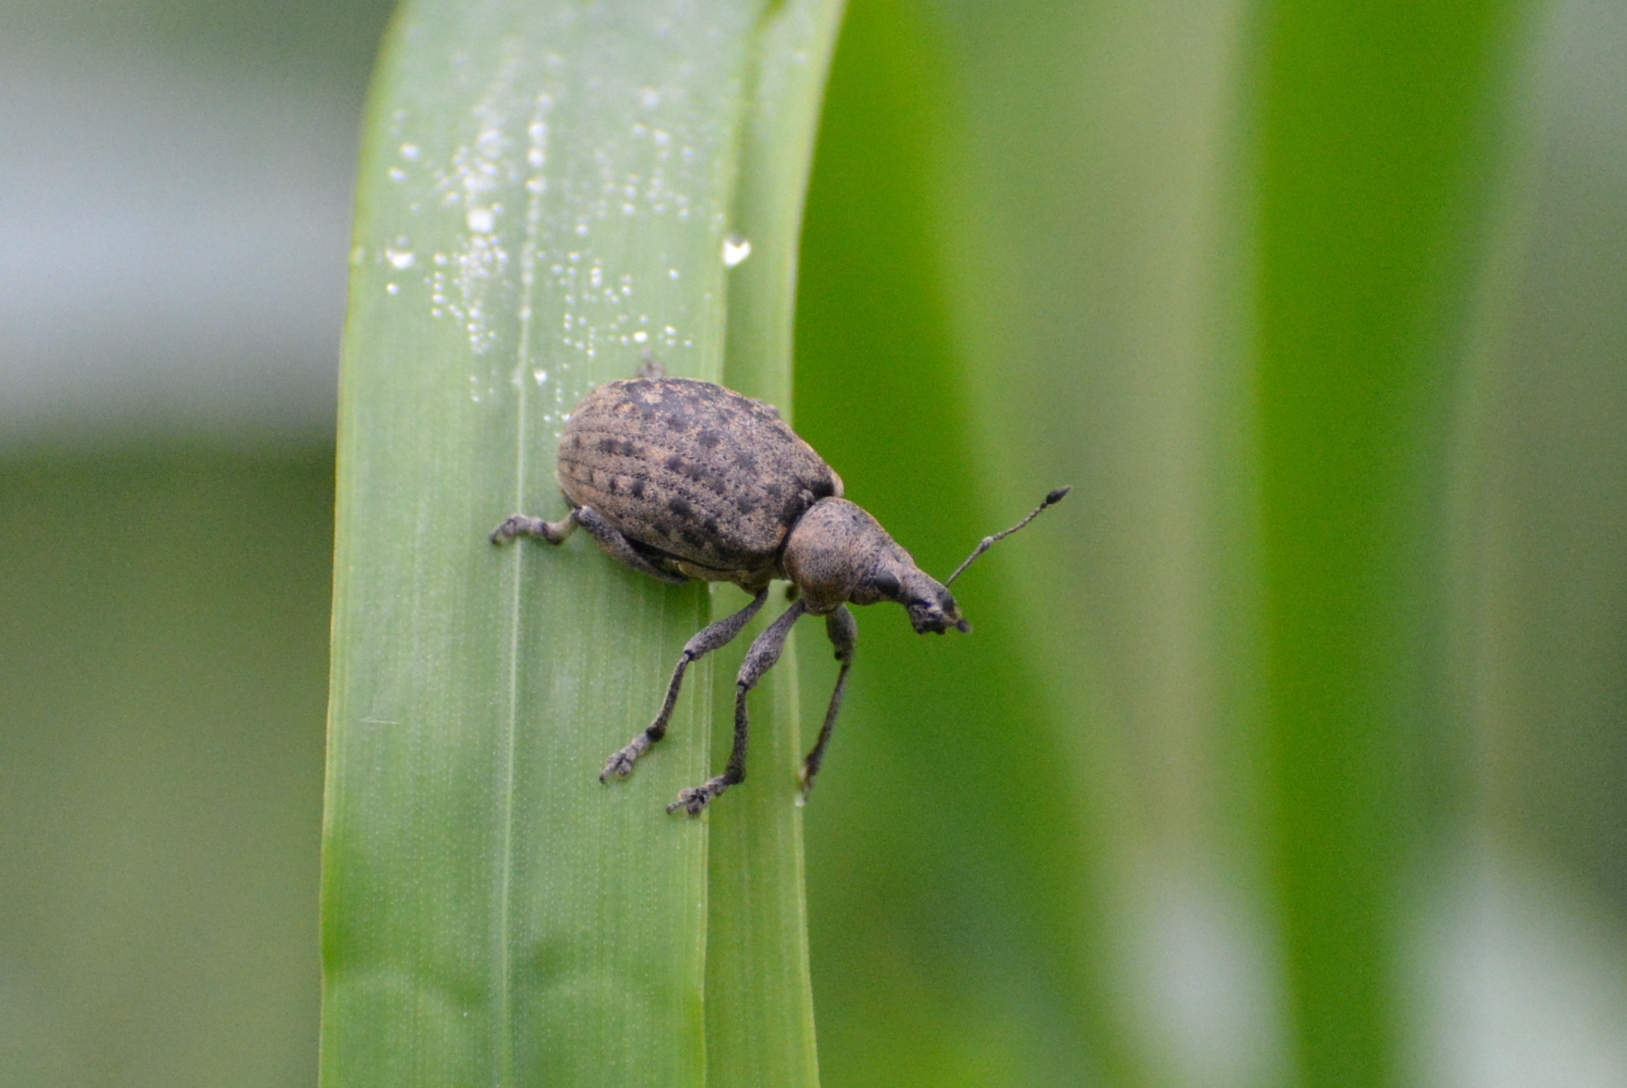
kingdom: Animalia
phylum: Arthropoda
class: Insecta
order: Coleoptera
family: Curculionidae
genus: Liophloeus
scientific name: Liophloeus tessulatus
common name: Weevil
